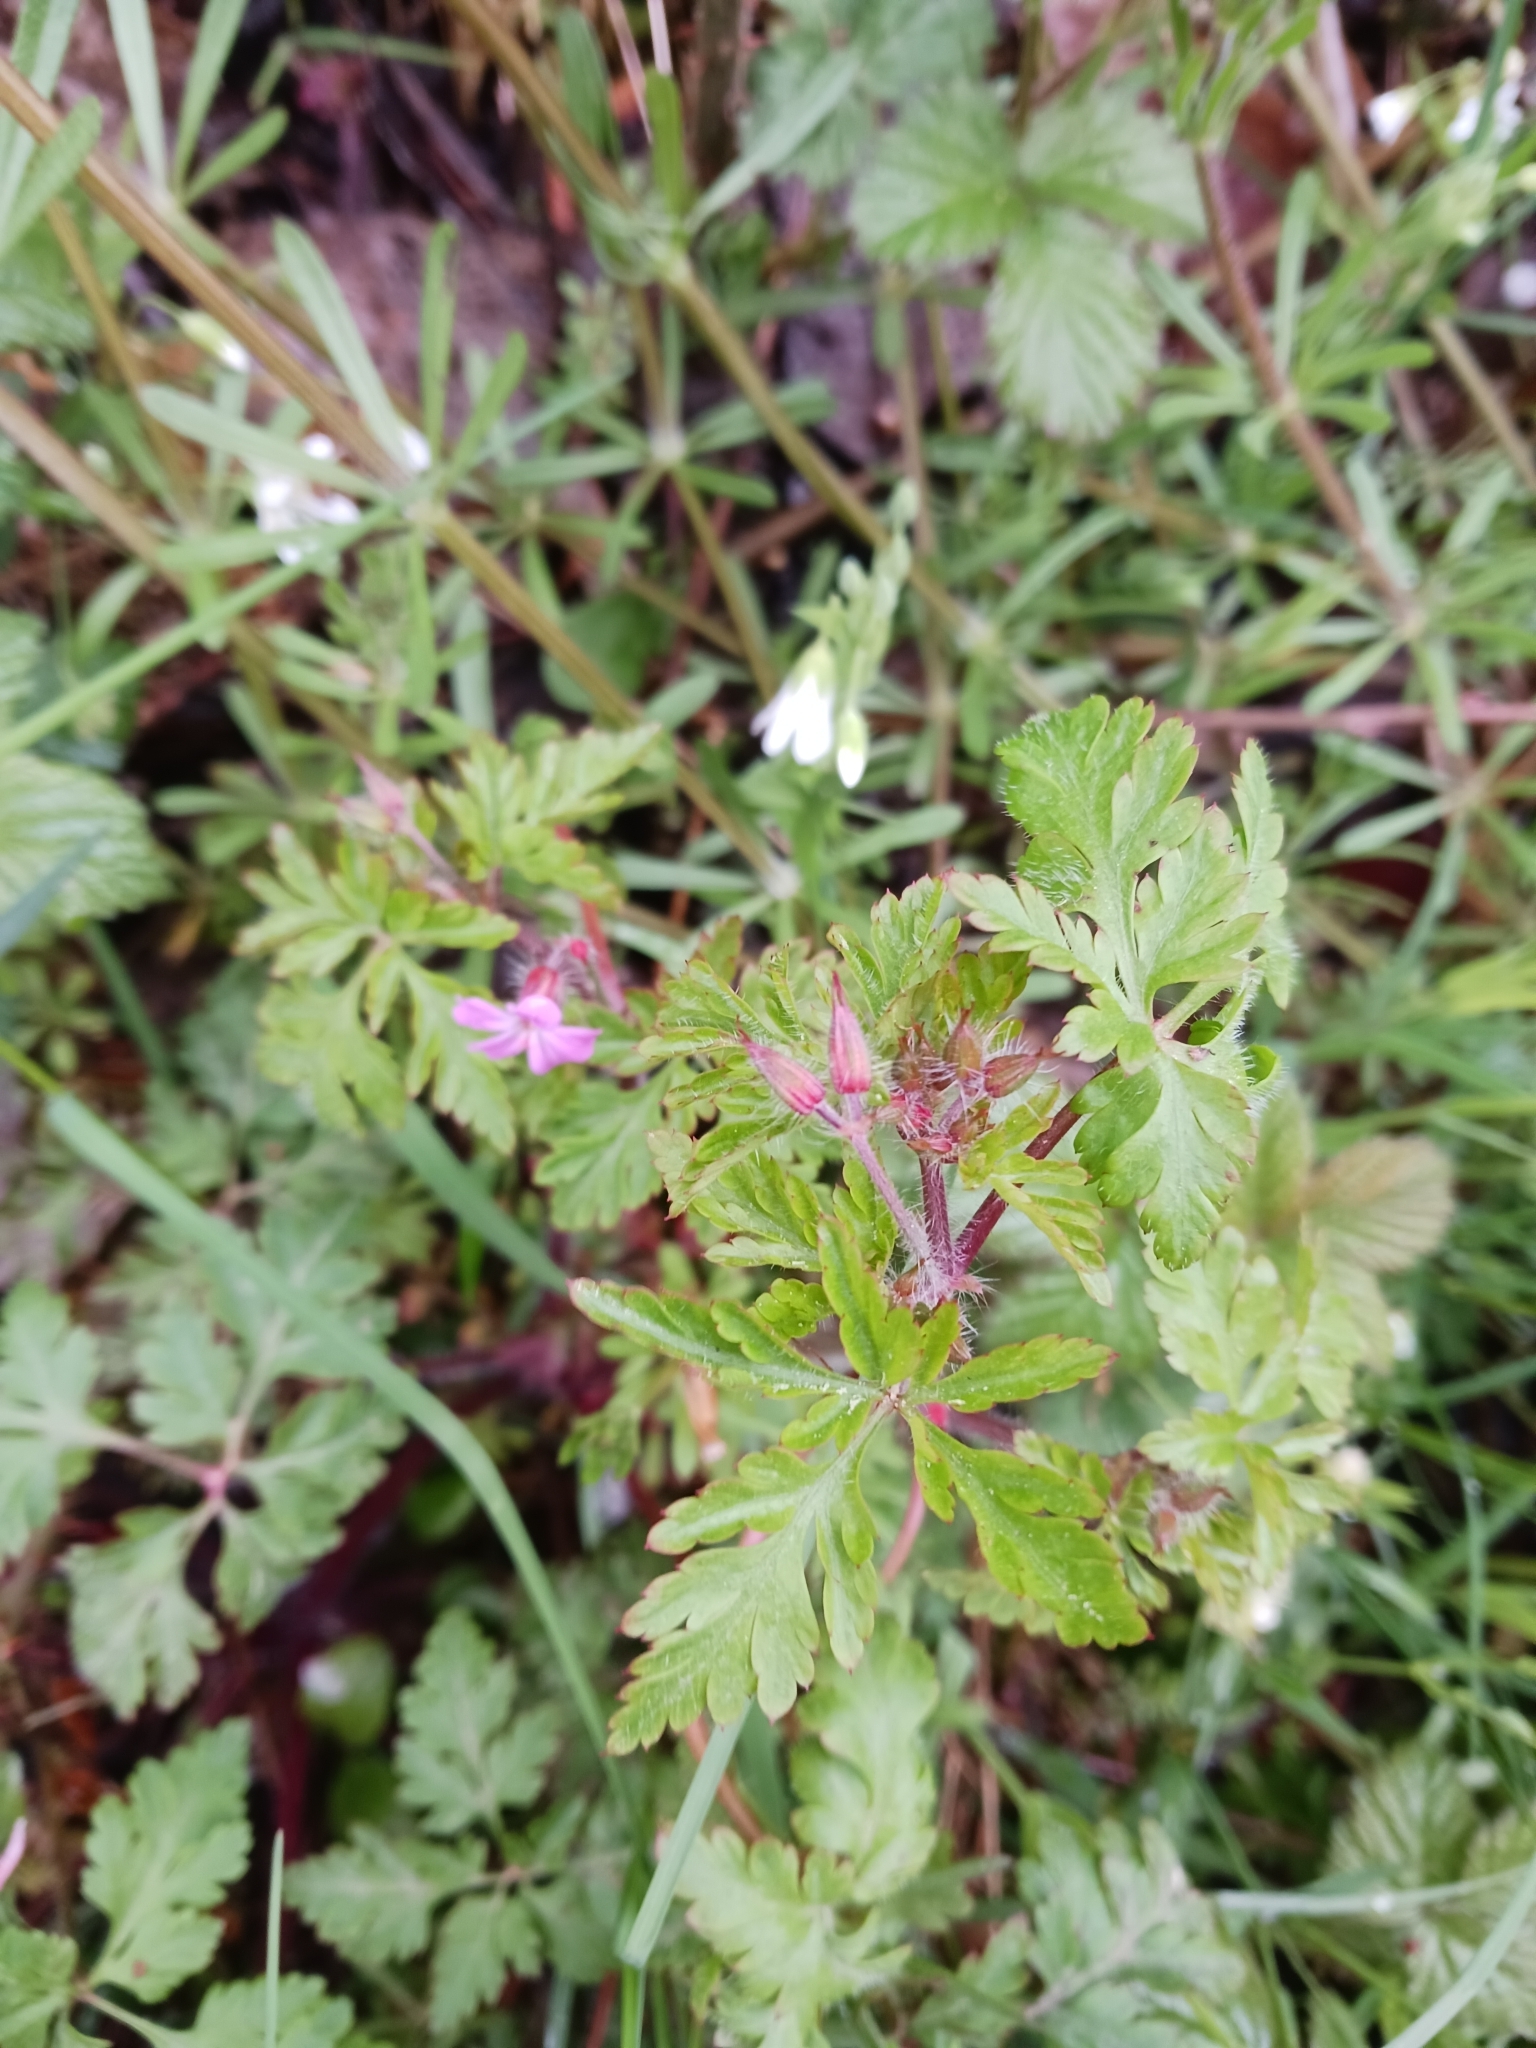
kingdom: Plantae
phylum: Tracheophyta
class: Magnoliopsida
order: Geraniales
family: Geraniaceae
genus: Geranium
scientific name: Geranium robertianum
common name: Herb-robert
